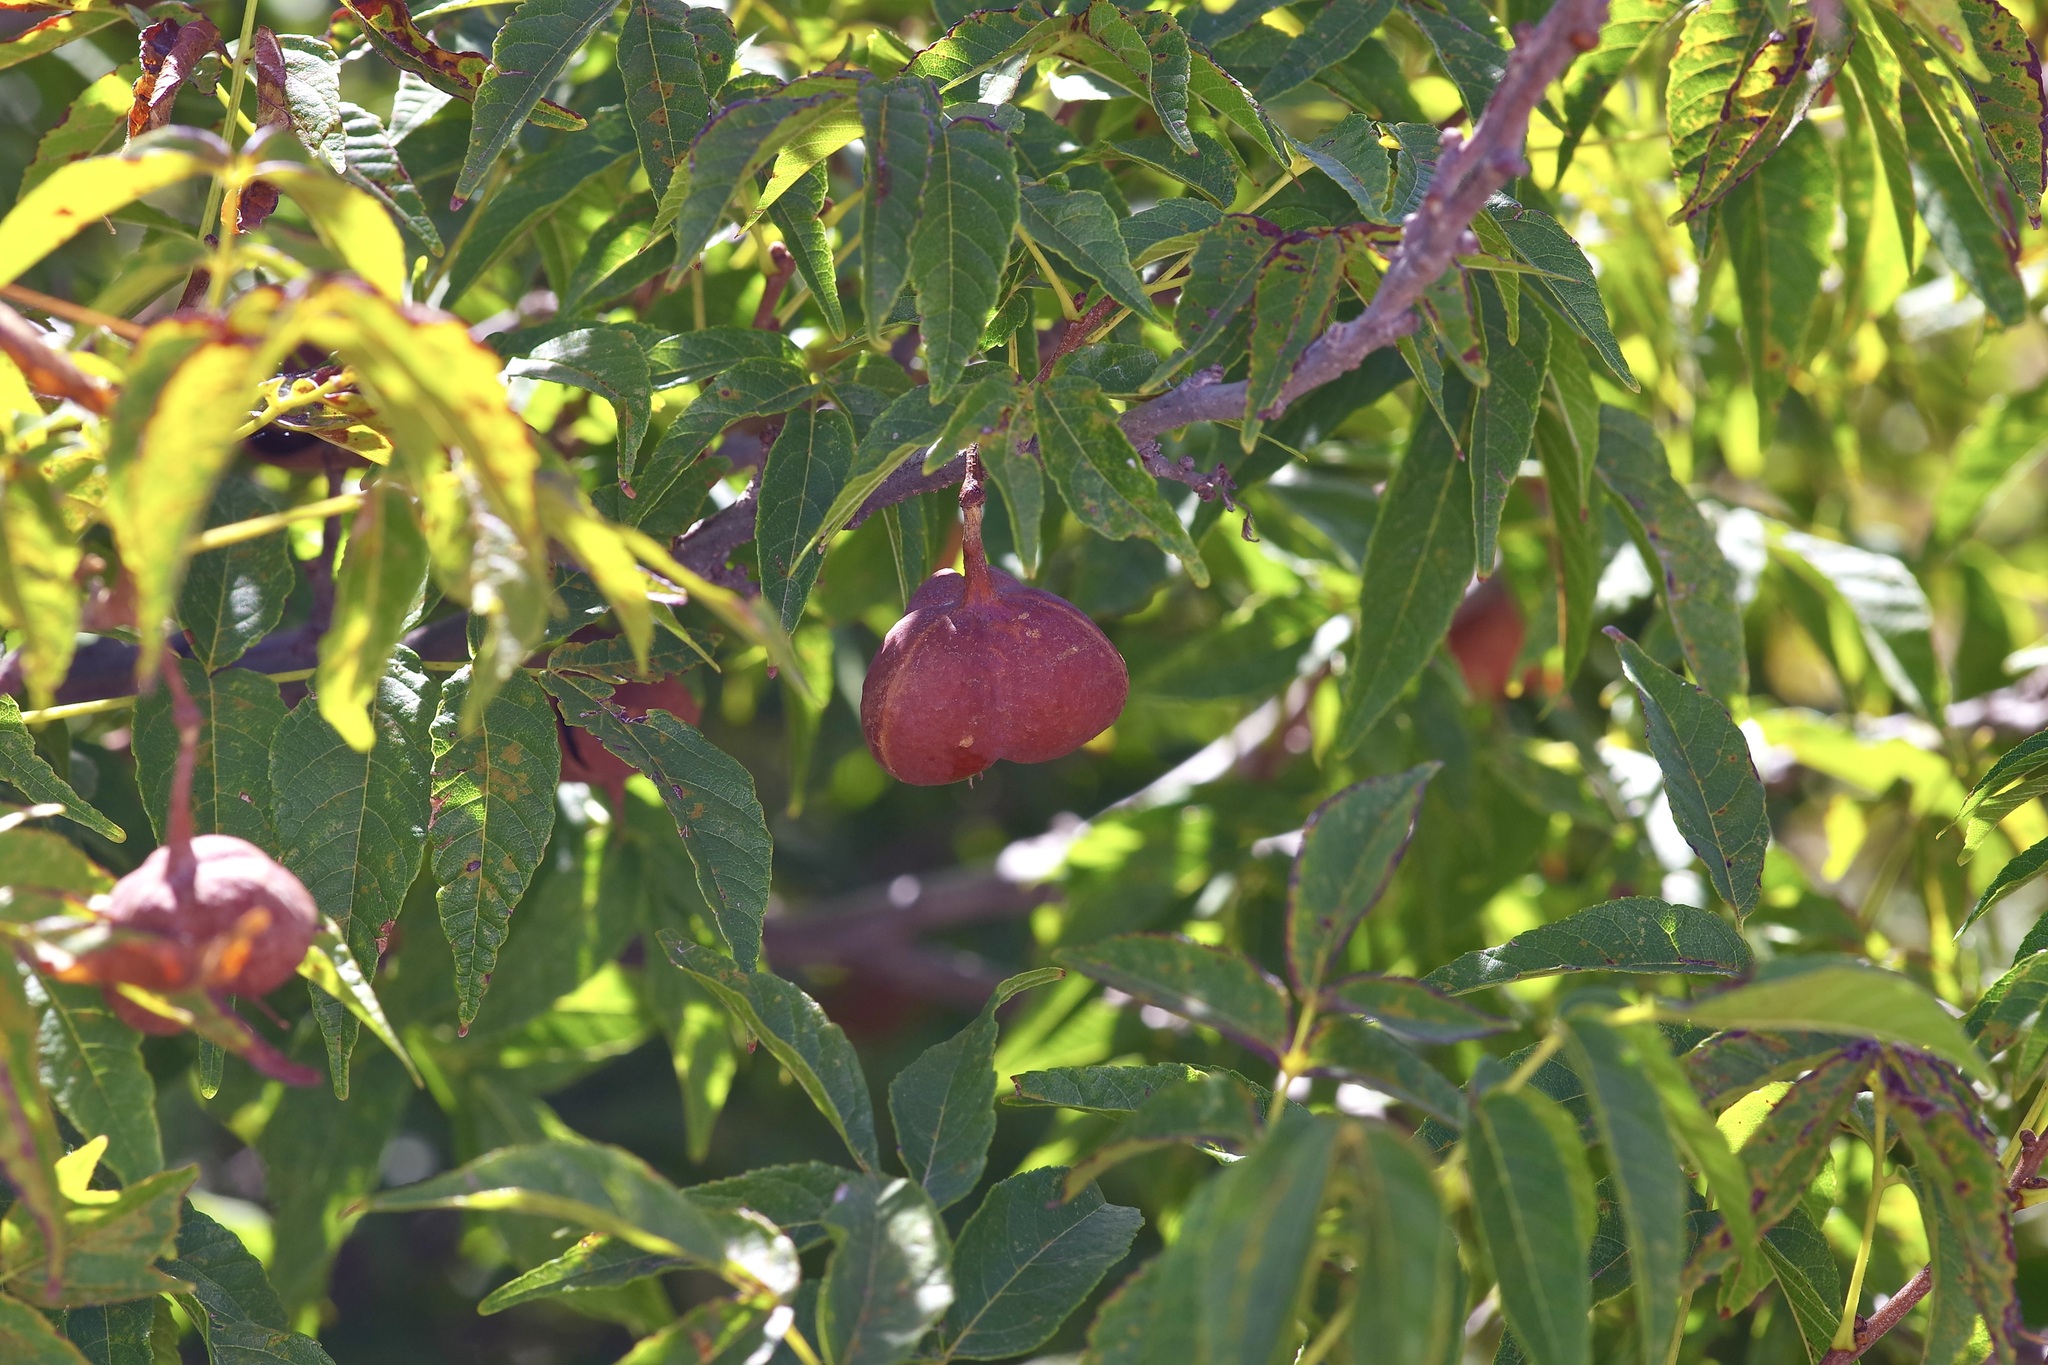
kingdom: Plantae
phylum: Tracheophyta
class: Magnoliopsida
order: Sapindales
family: Sapindaceae
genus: Ungnadia
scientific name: Ungnadia speciosa
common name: Texas-buckeye
